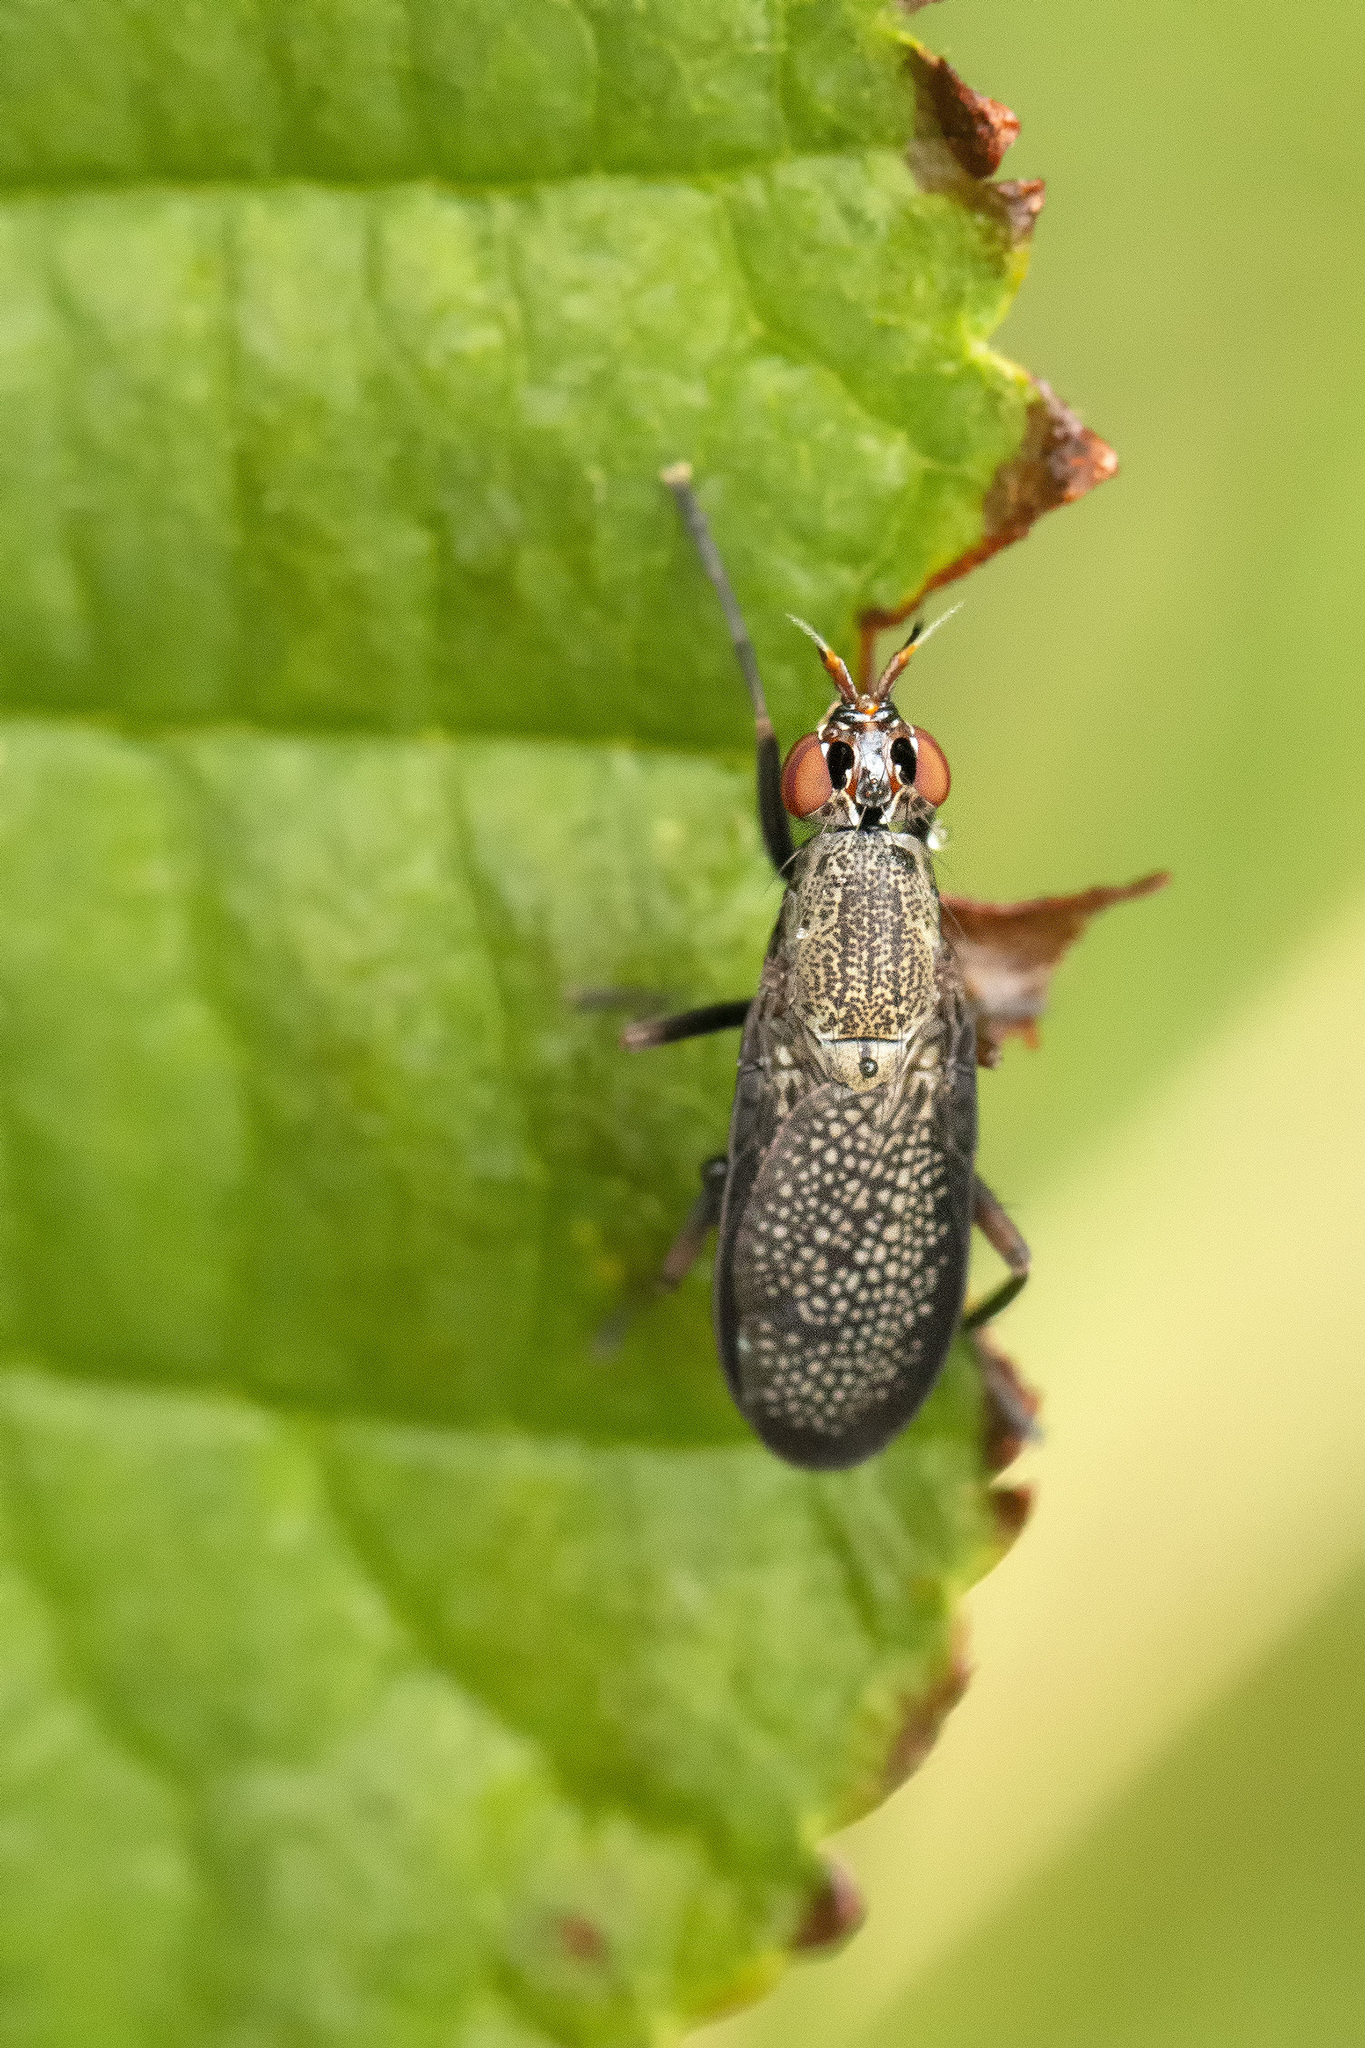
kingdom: Animalia
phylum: Arthropoda
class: Insecta
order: Diptera
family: Sciomyzidae
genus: Coremacera
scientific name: Coremacera marginata
